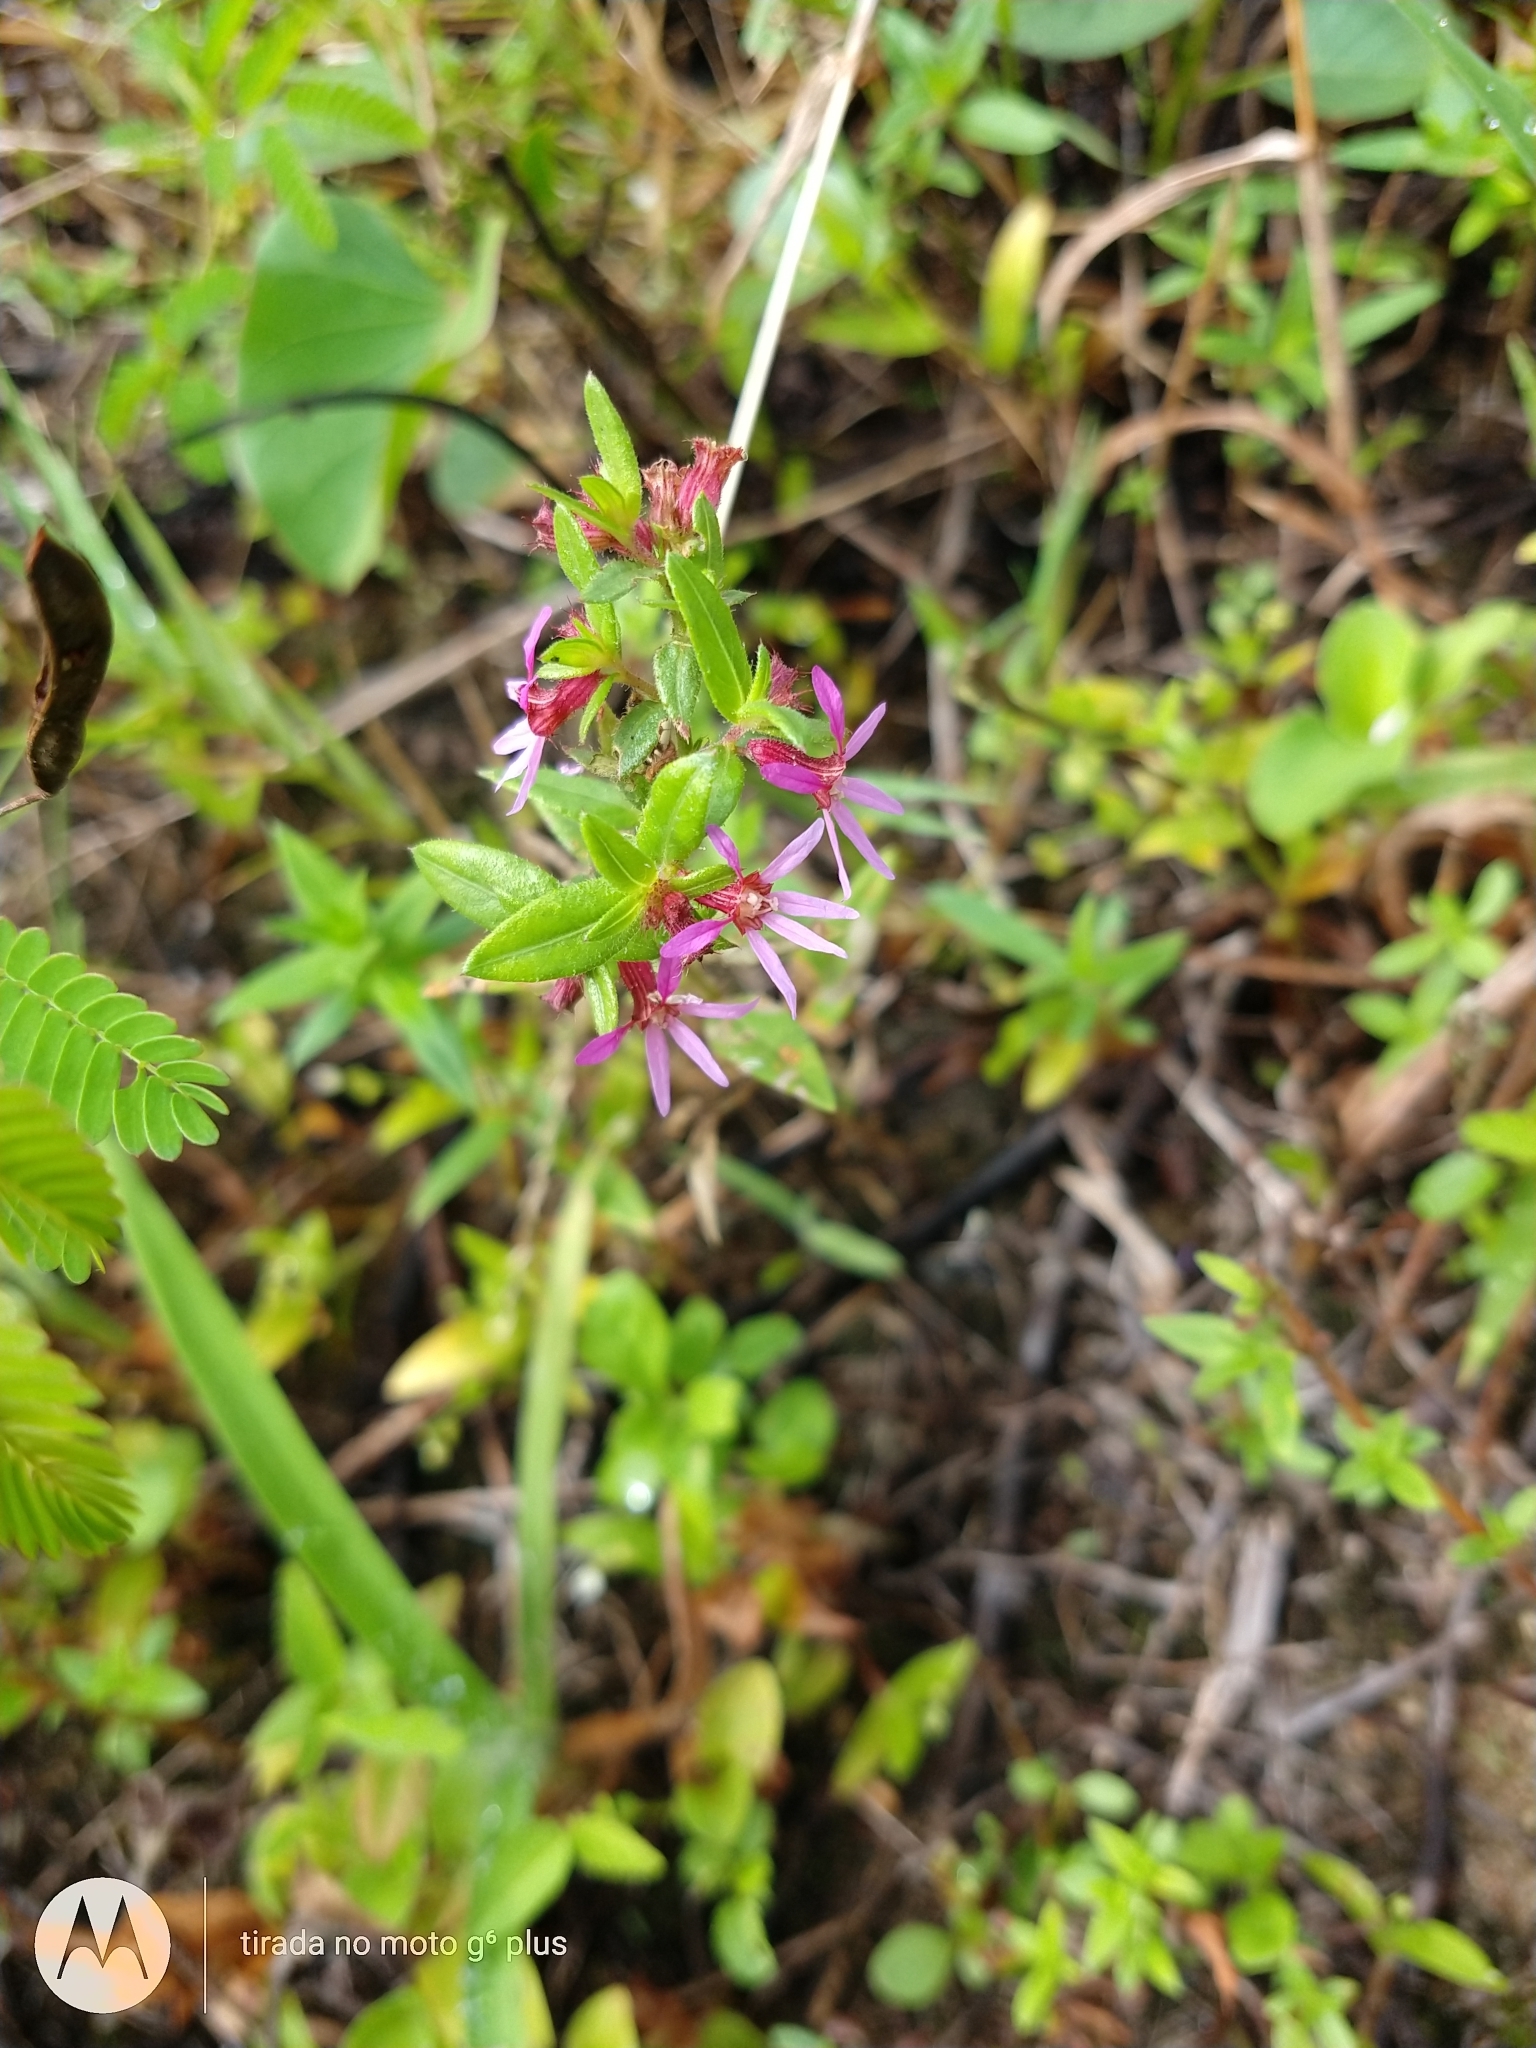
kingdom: Plantae
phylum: Tracheophyta
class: Magnoliopsida
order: Myrtales
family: Lythraceae
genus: Cuphea
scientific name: Cuphea campestris
